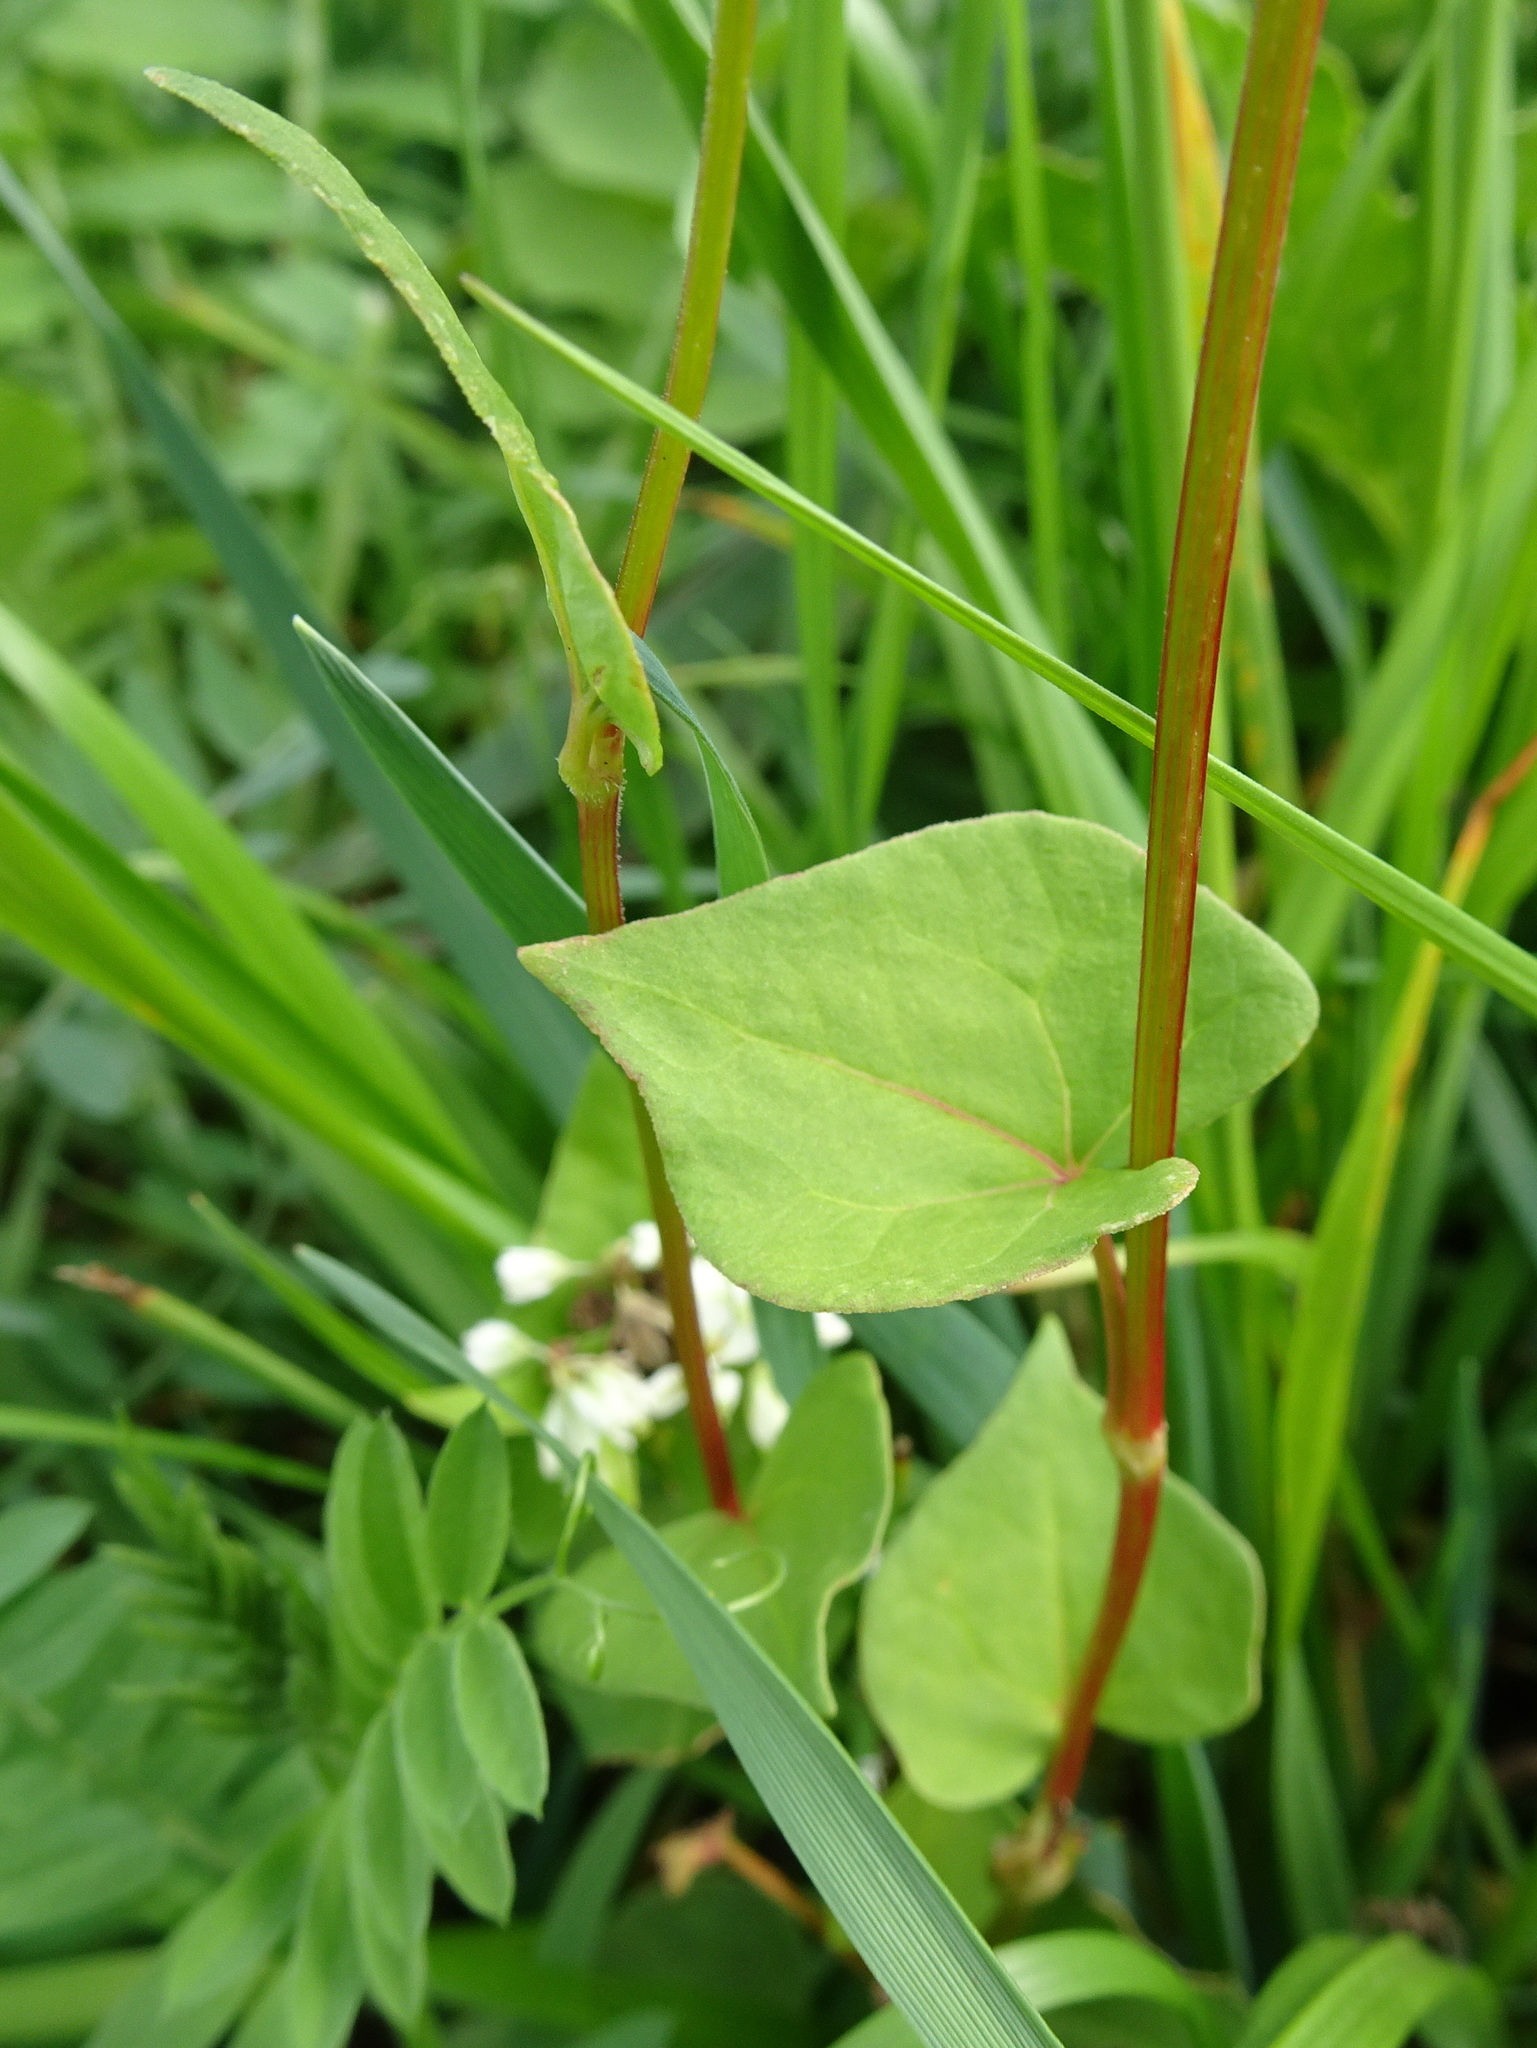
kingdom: Plantae
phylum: Tracheophyta
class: Magnoliopsida
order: Caryophyllales
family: Polygonaceae
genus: Fagopyrum
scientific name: Fagopyrum esculentum
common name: Buckwheat
